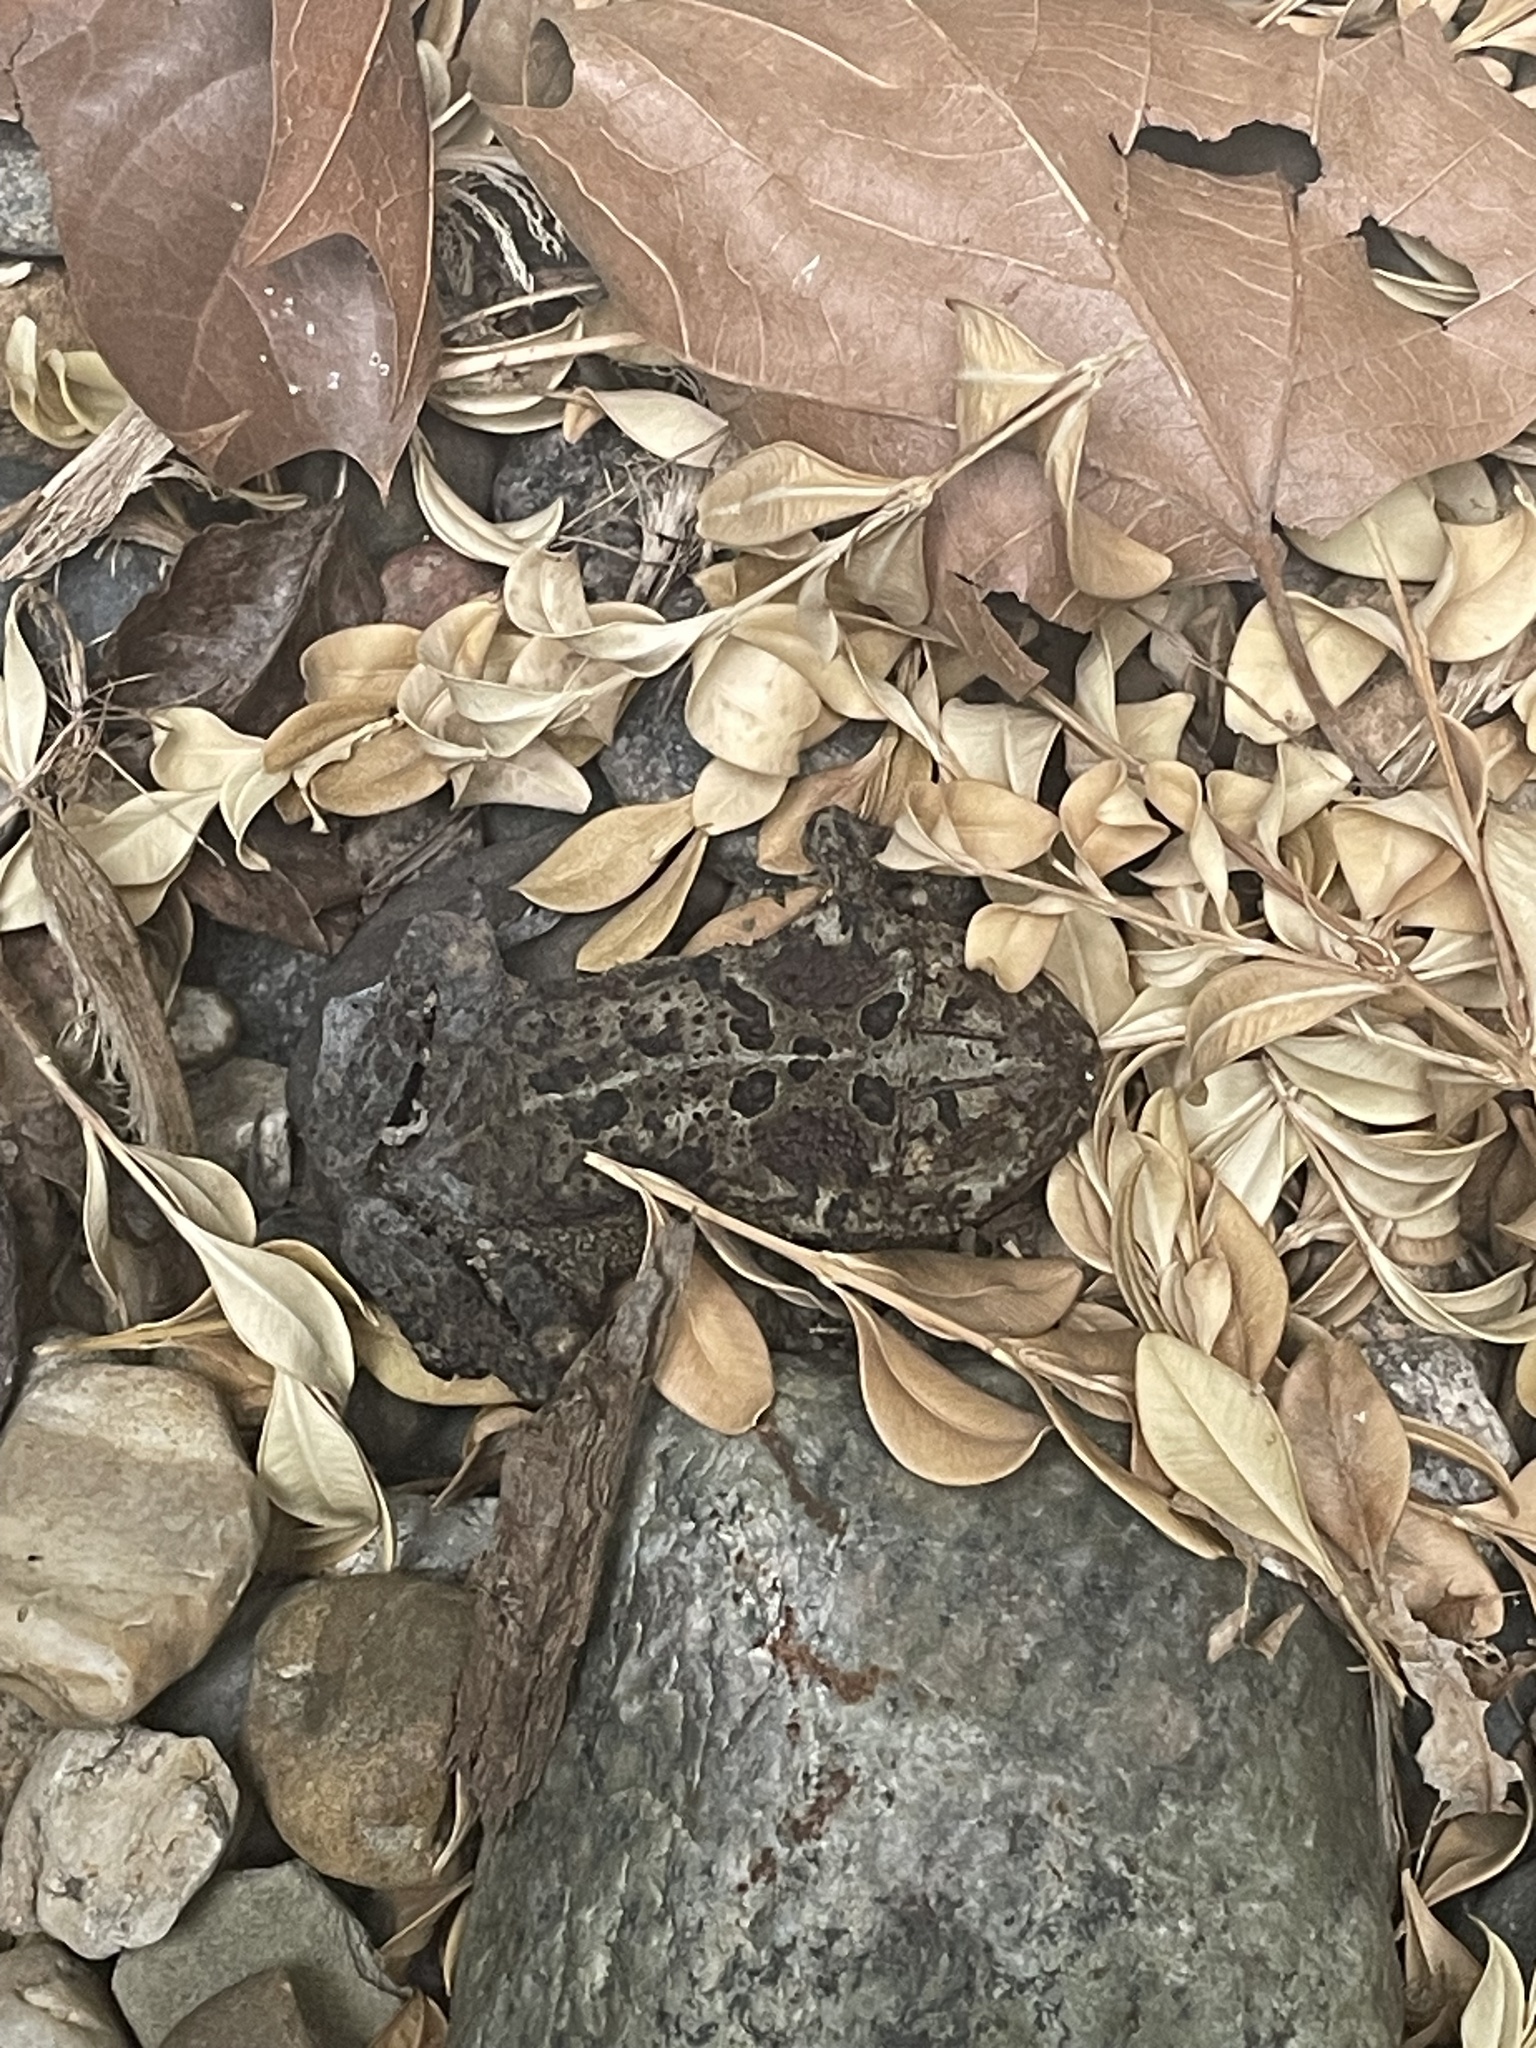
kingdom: Animalia
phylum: Chordata
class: Amphibia
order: Anura
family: Bufonidae
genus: Anaxyrus
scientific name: Anaxyrus americanus
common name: American toad
